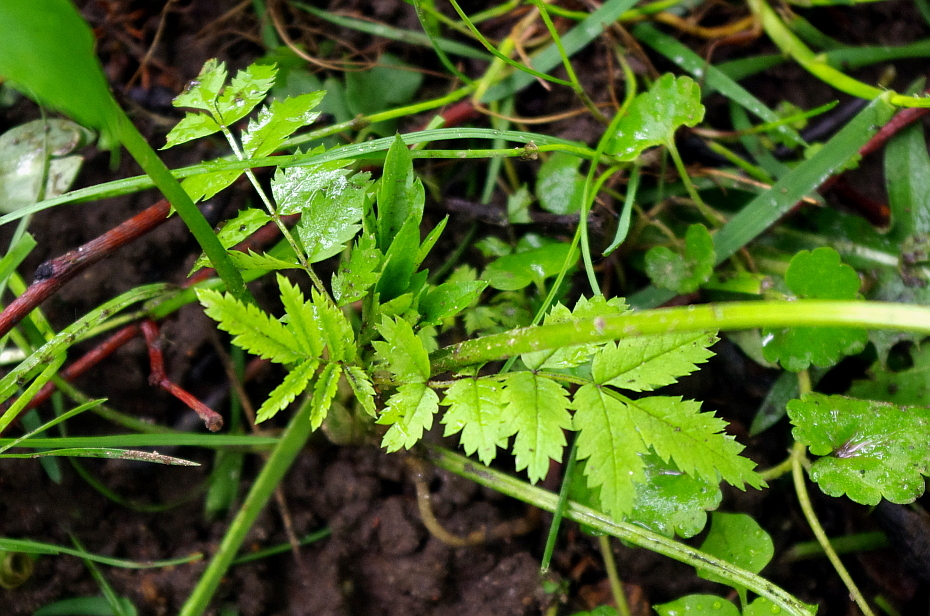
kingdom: Plantae
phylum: Tracheophyta
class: Magnoliopsida
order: Rosales
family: Rosaceae
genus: Sorbus
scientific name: Sorbus aucuparia
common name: Rowan
